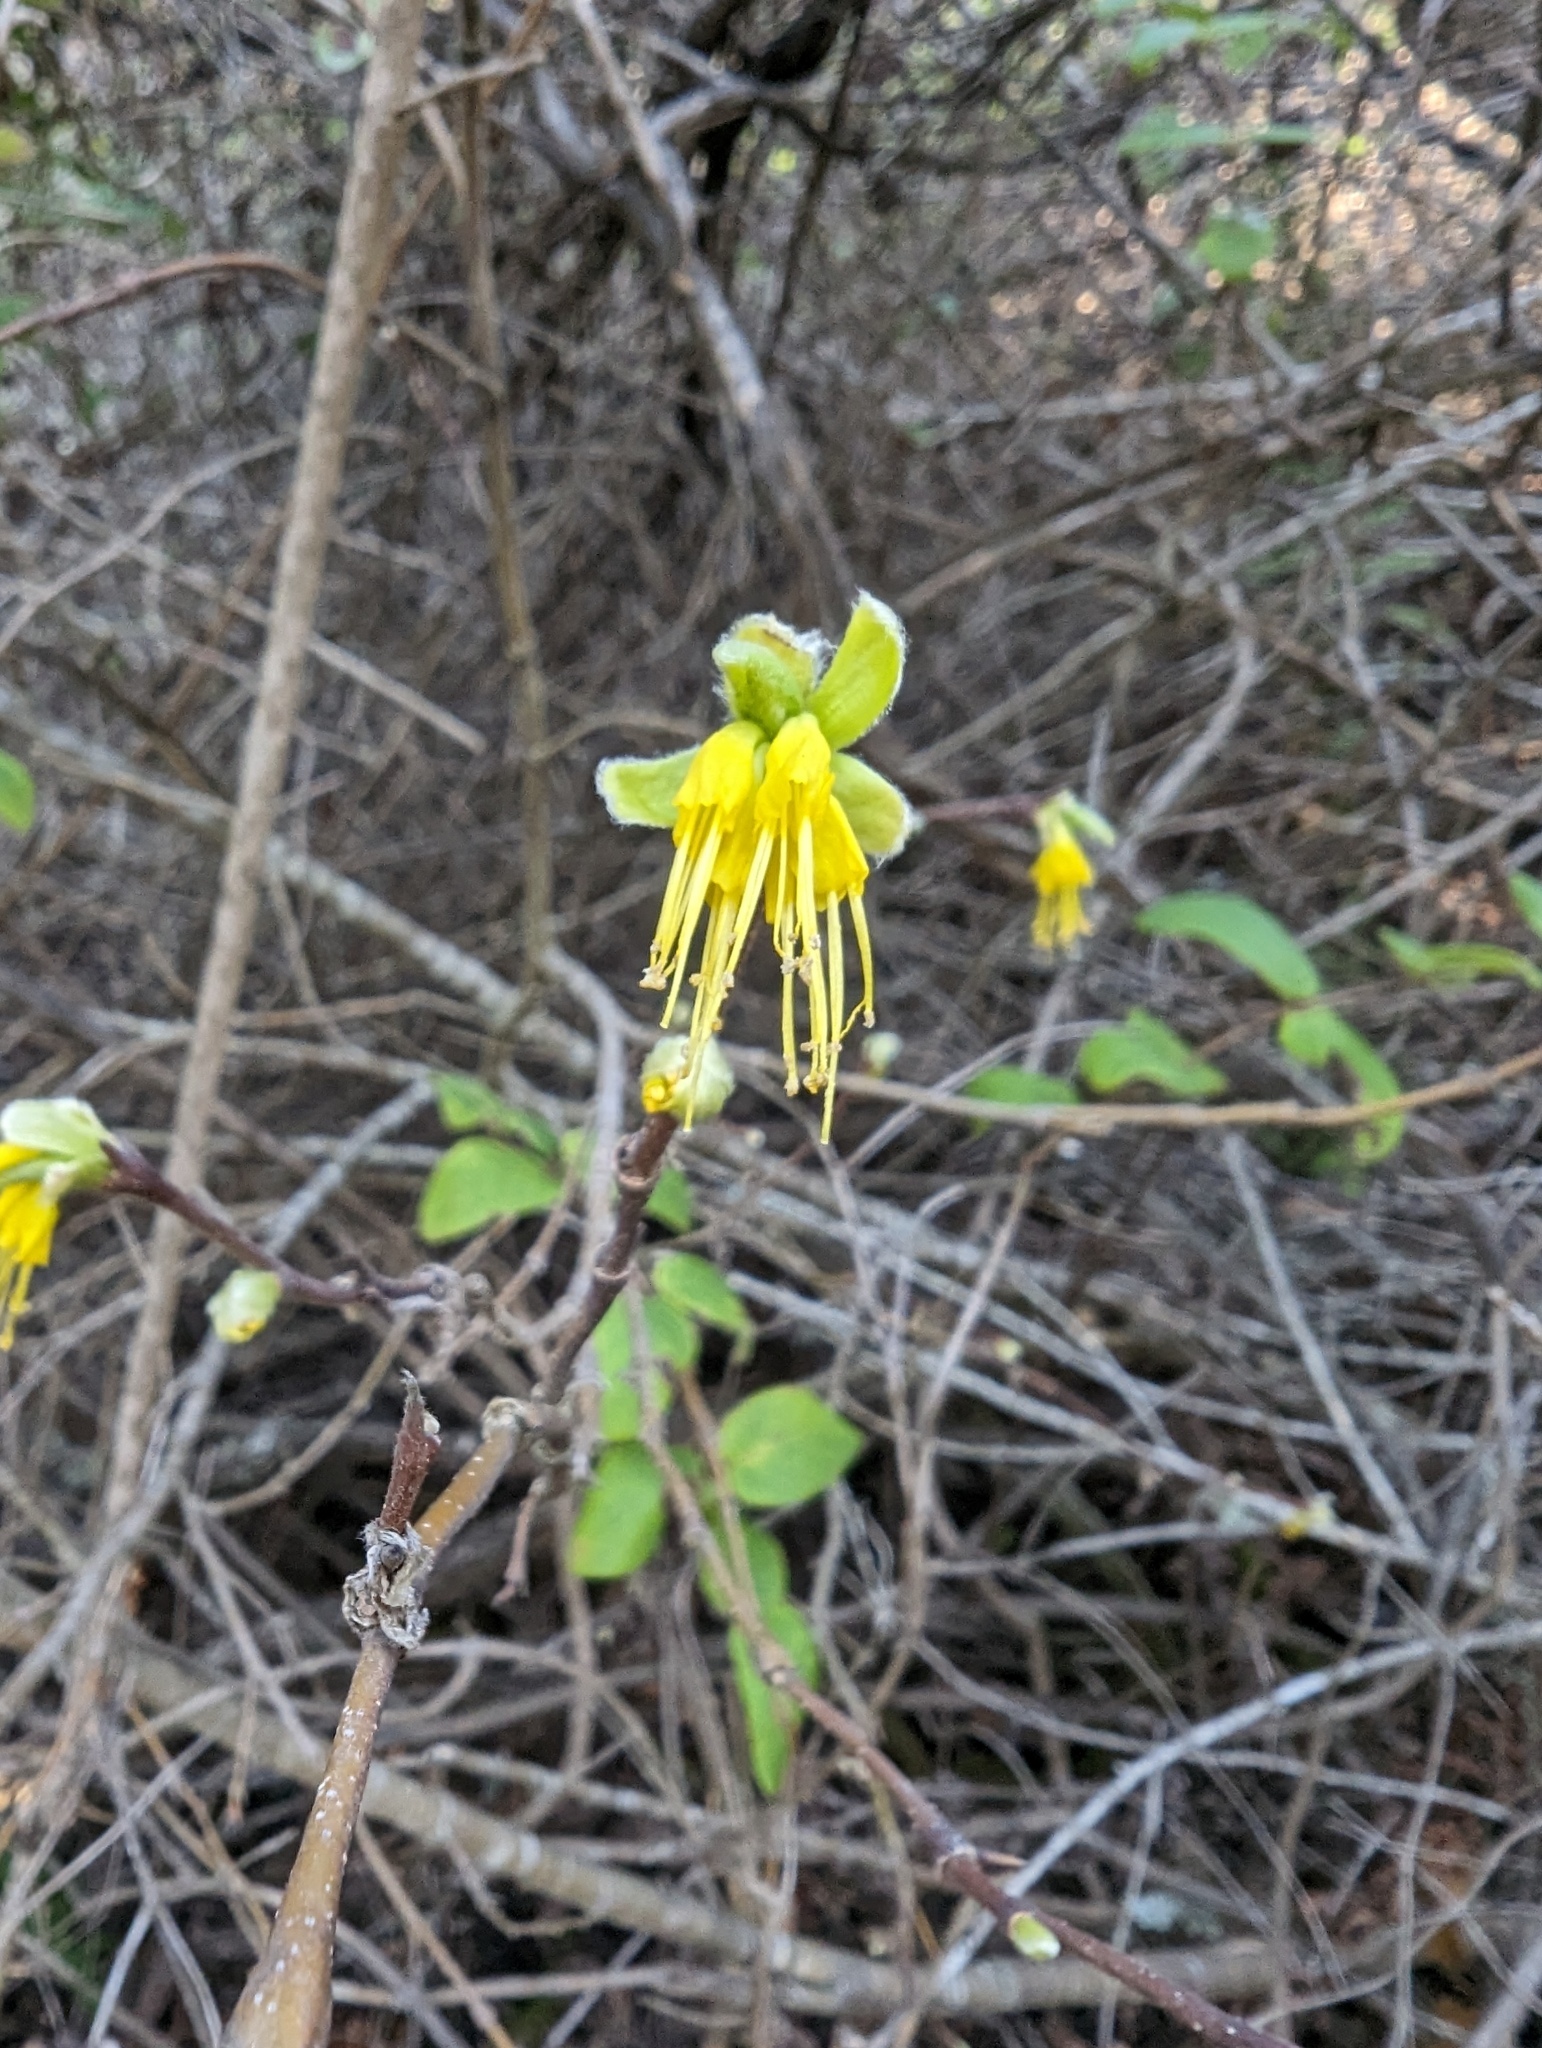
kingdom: Plantae
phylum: Tracheophyta
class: Magnoliopsida
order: Malvales
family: Thymelaeaceae
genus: Dirca
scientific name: Dirca occidentalis
